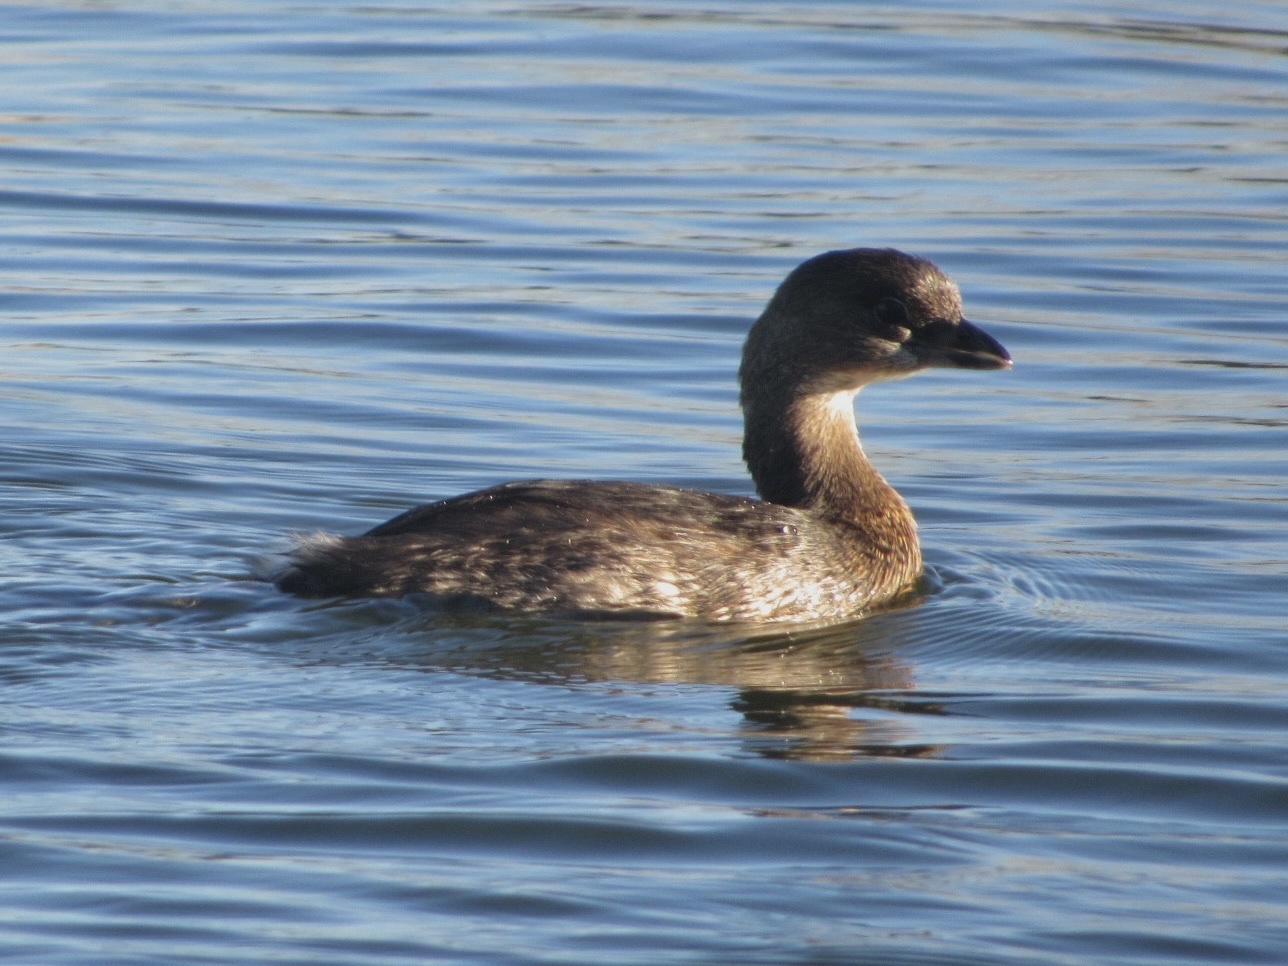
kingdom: Animalia
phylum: Chordata
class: Aves
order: Podicipediformes
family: Podicipedidae
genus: Podilymbus
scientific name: Podilymbus podiceps
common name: Pied-billed grebe
